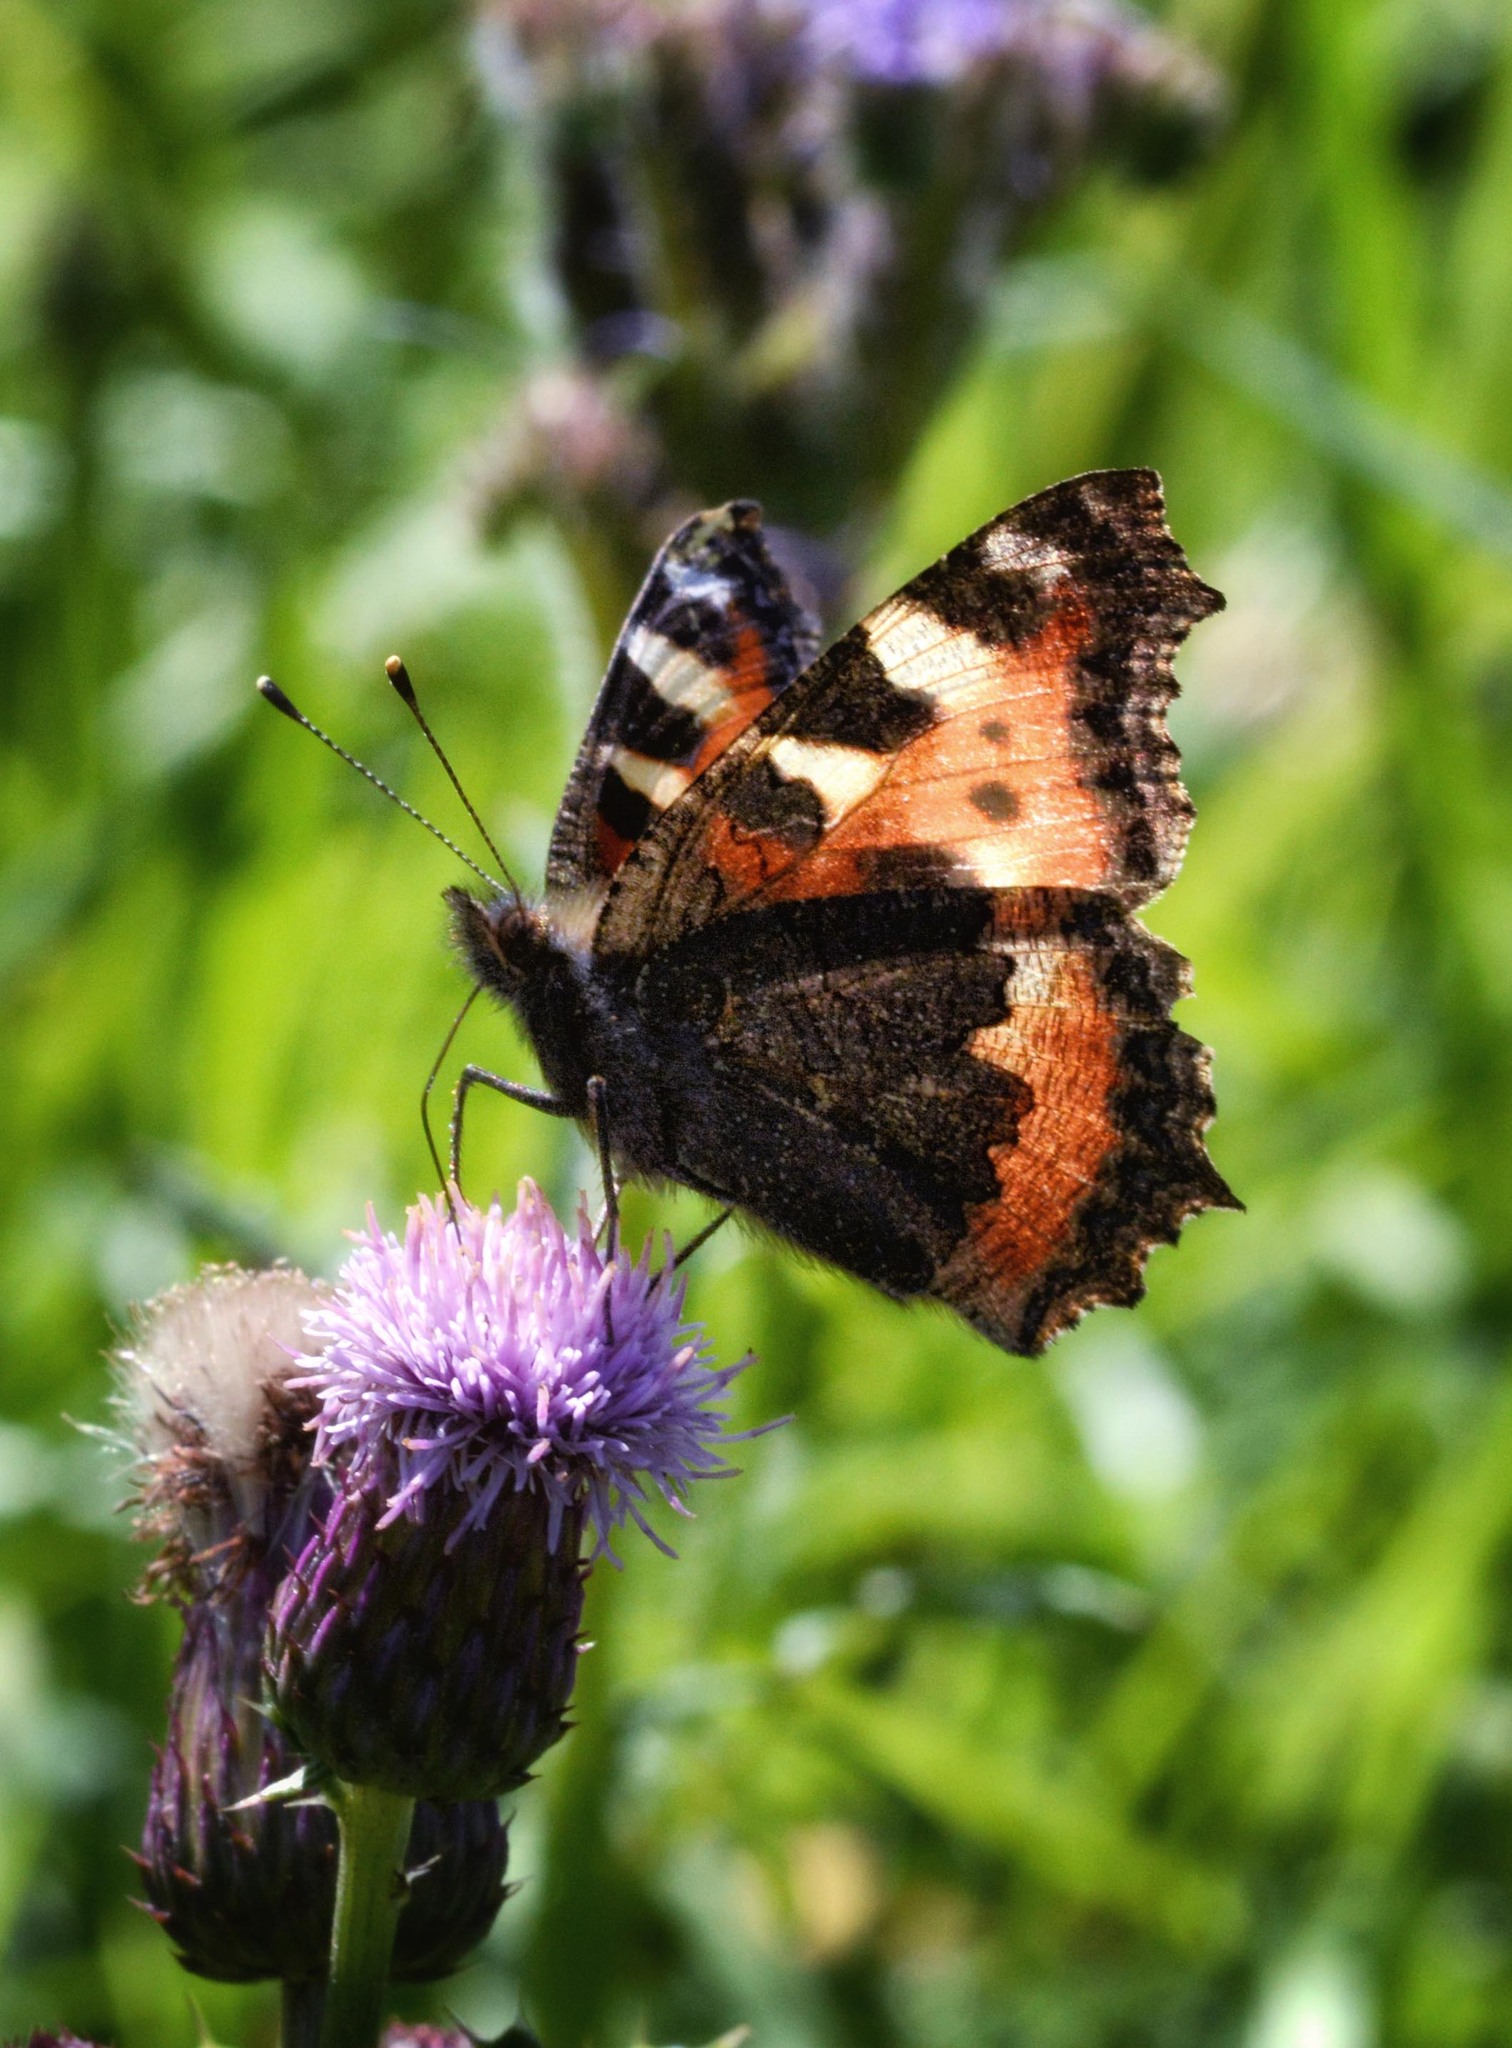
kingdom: Animalia
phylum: Arthropoda
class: Insecta
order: Lepidoptera
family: Nymphalidae
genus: Aglais
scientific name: Aglais urticae
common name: Small tortoiseshell
